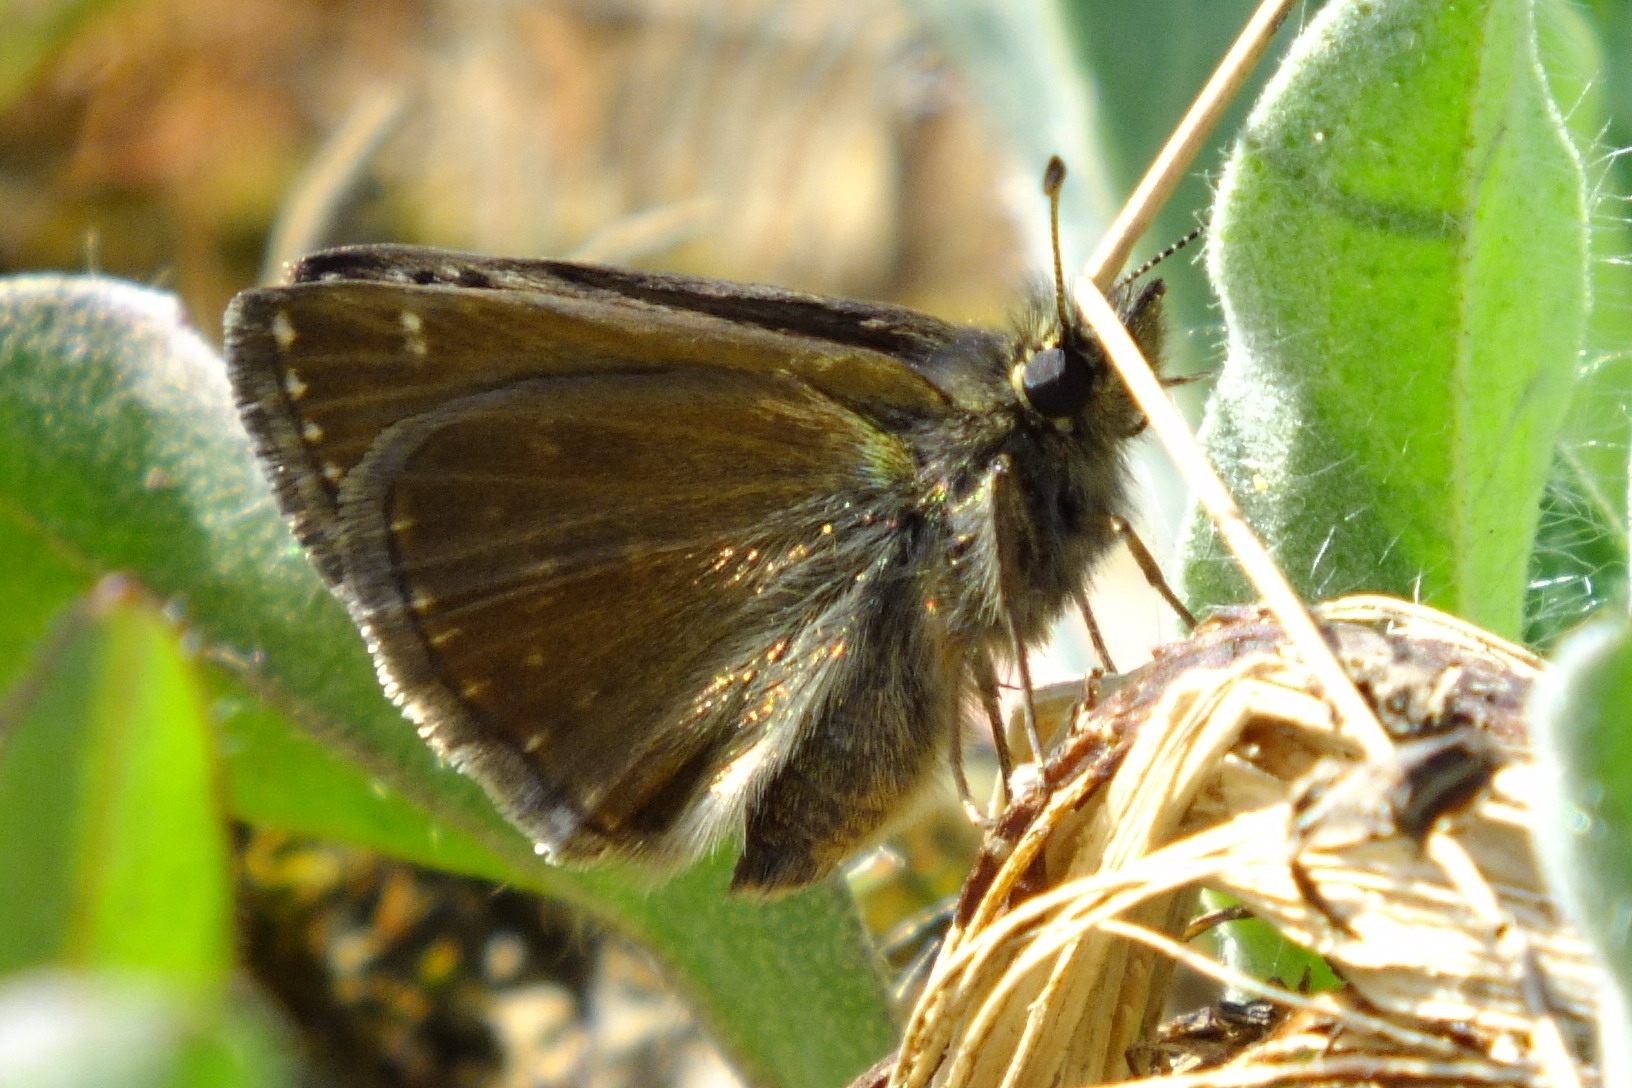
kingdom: Animalia
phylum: Arthropoda
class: Insecta
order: Lepidoptera
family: Hesperiidae
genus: Erynnis
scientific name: Erynnis tages
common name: Dingy skipper
